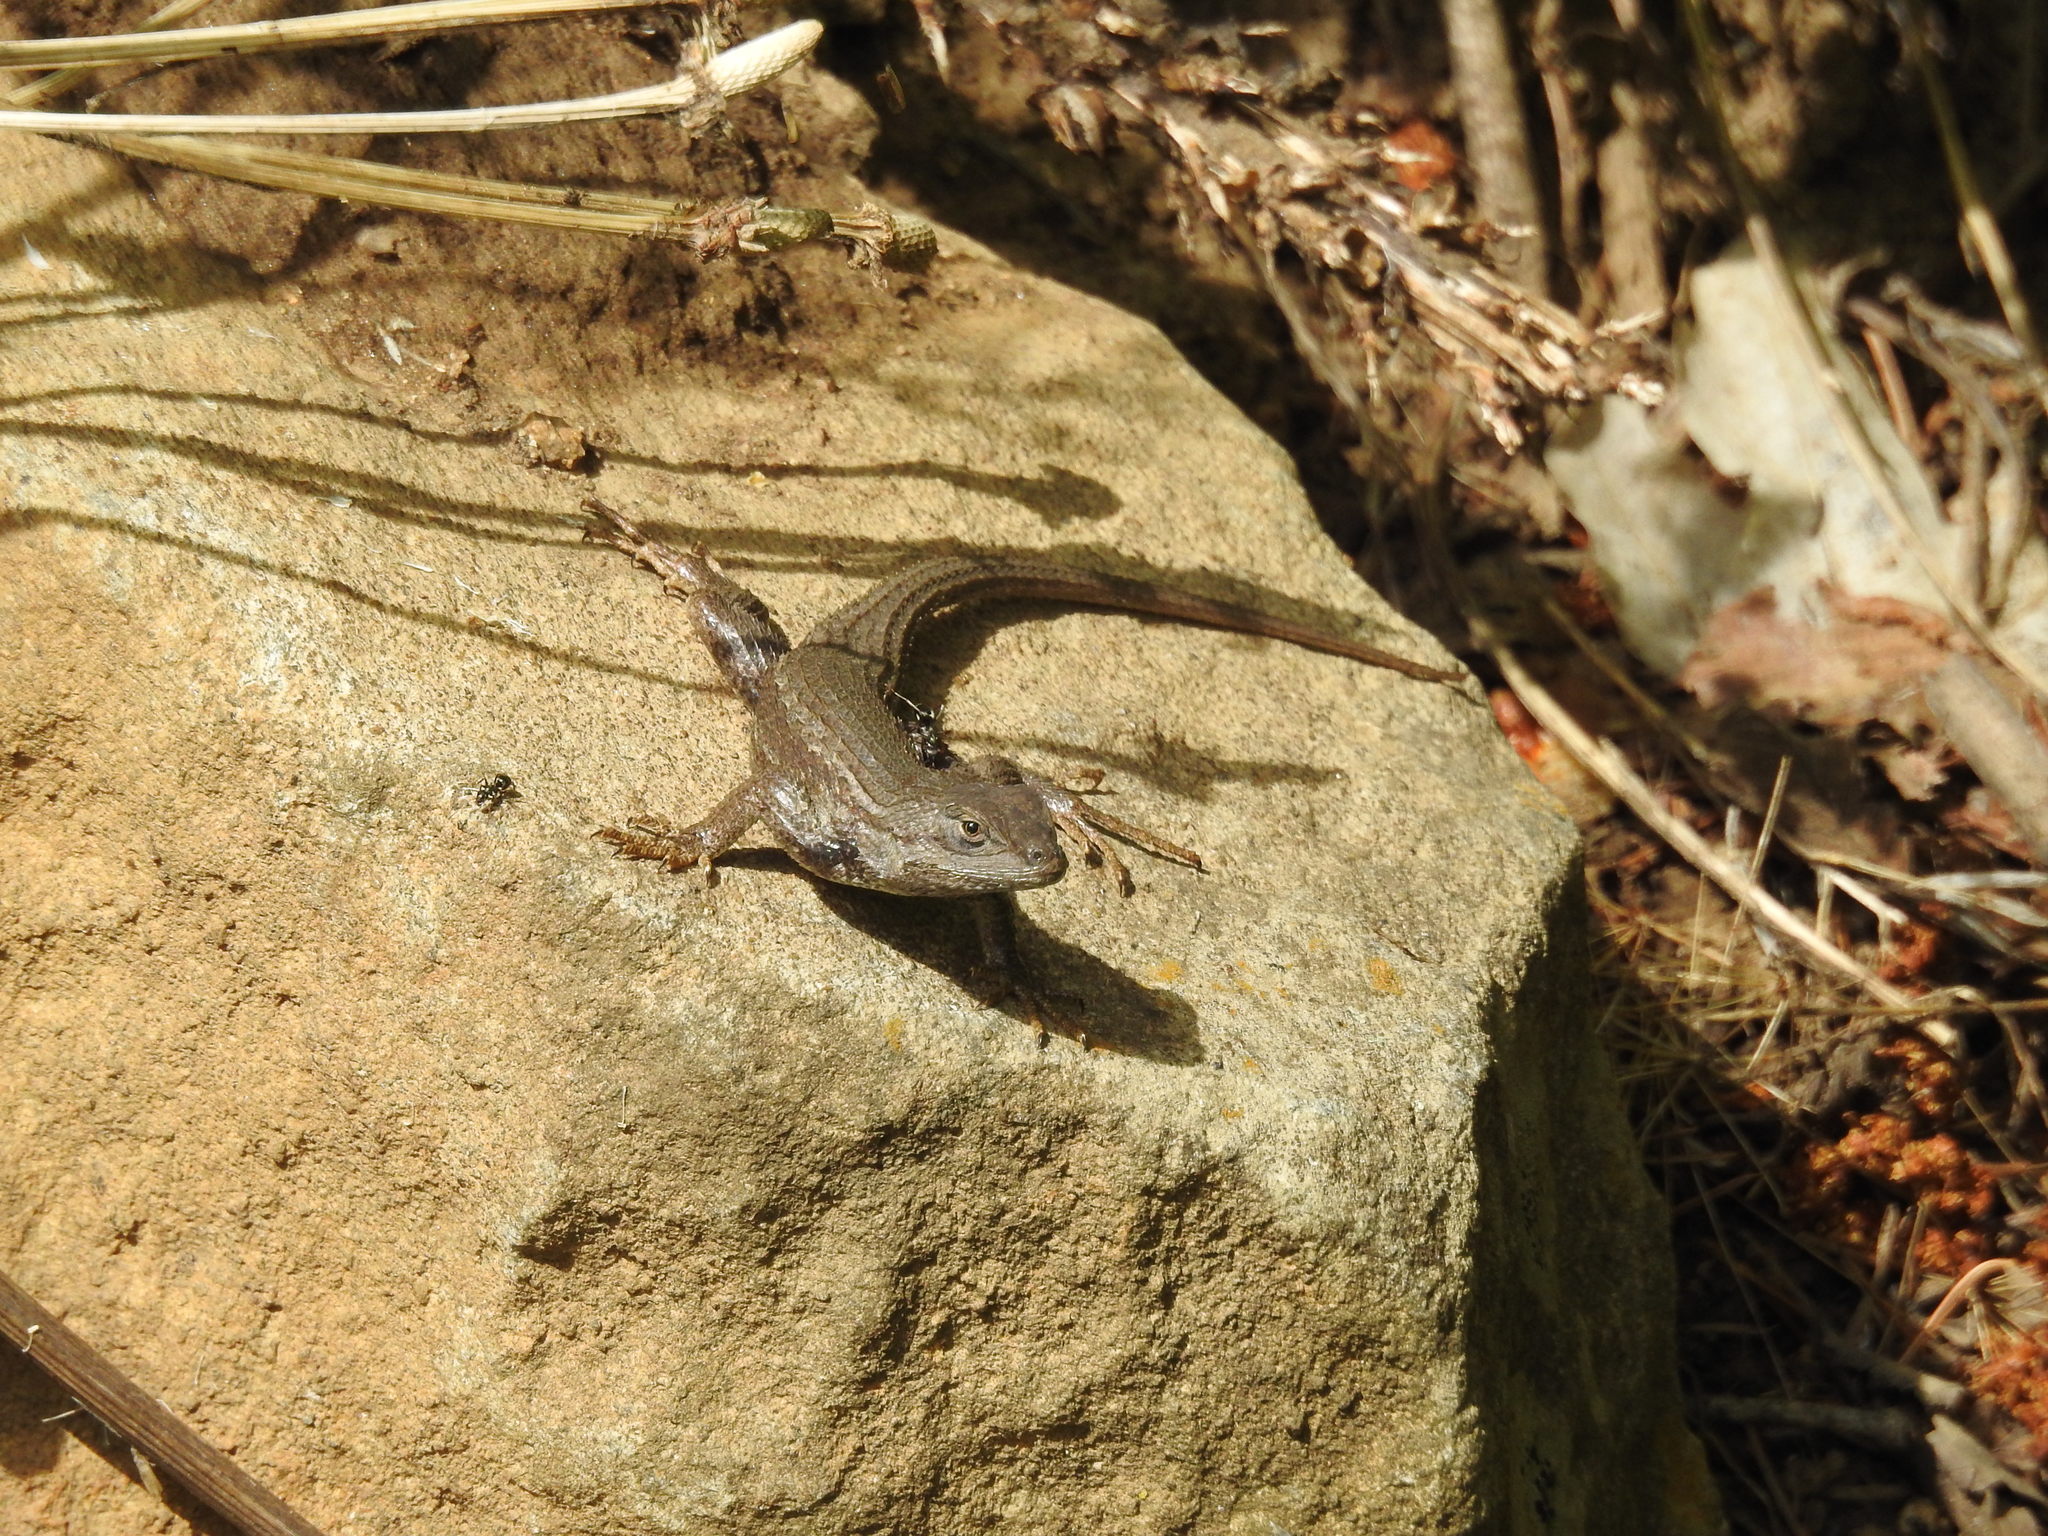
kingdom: Animalia
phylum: Chordata
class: Squamata
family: Phrynosomatidae
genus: Sceloporus
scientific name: Sceloporus tristichus
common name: Plateau fence lizard
